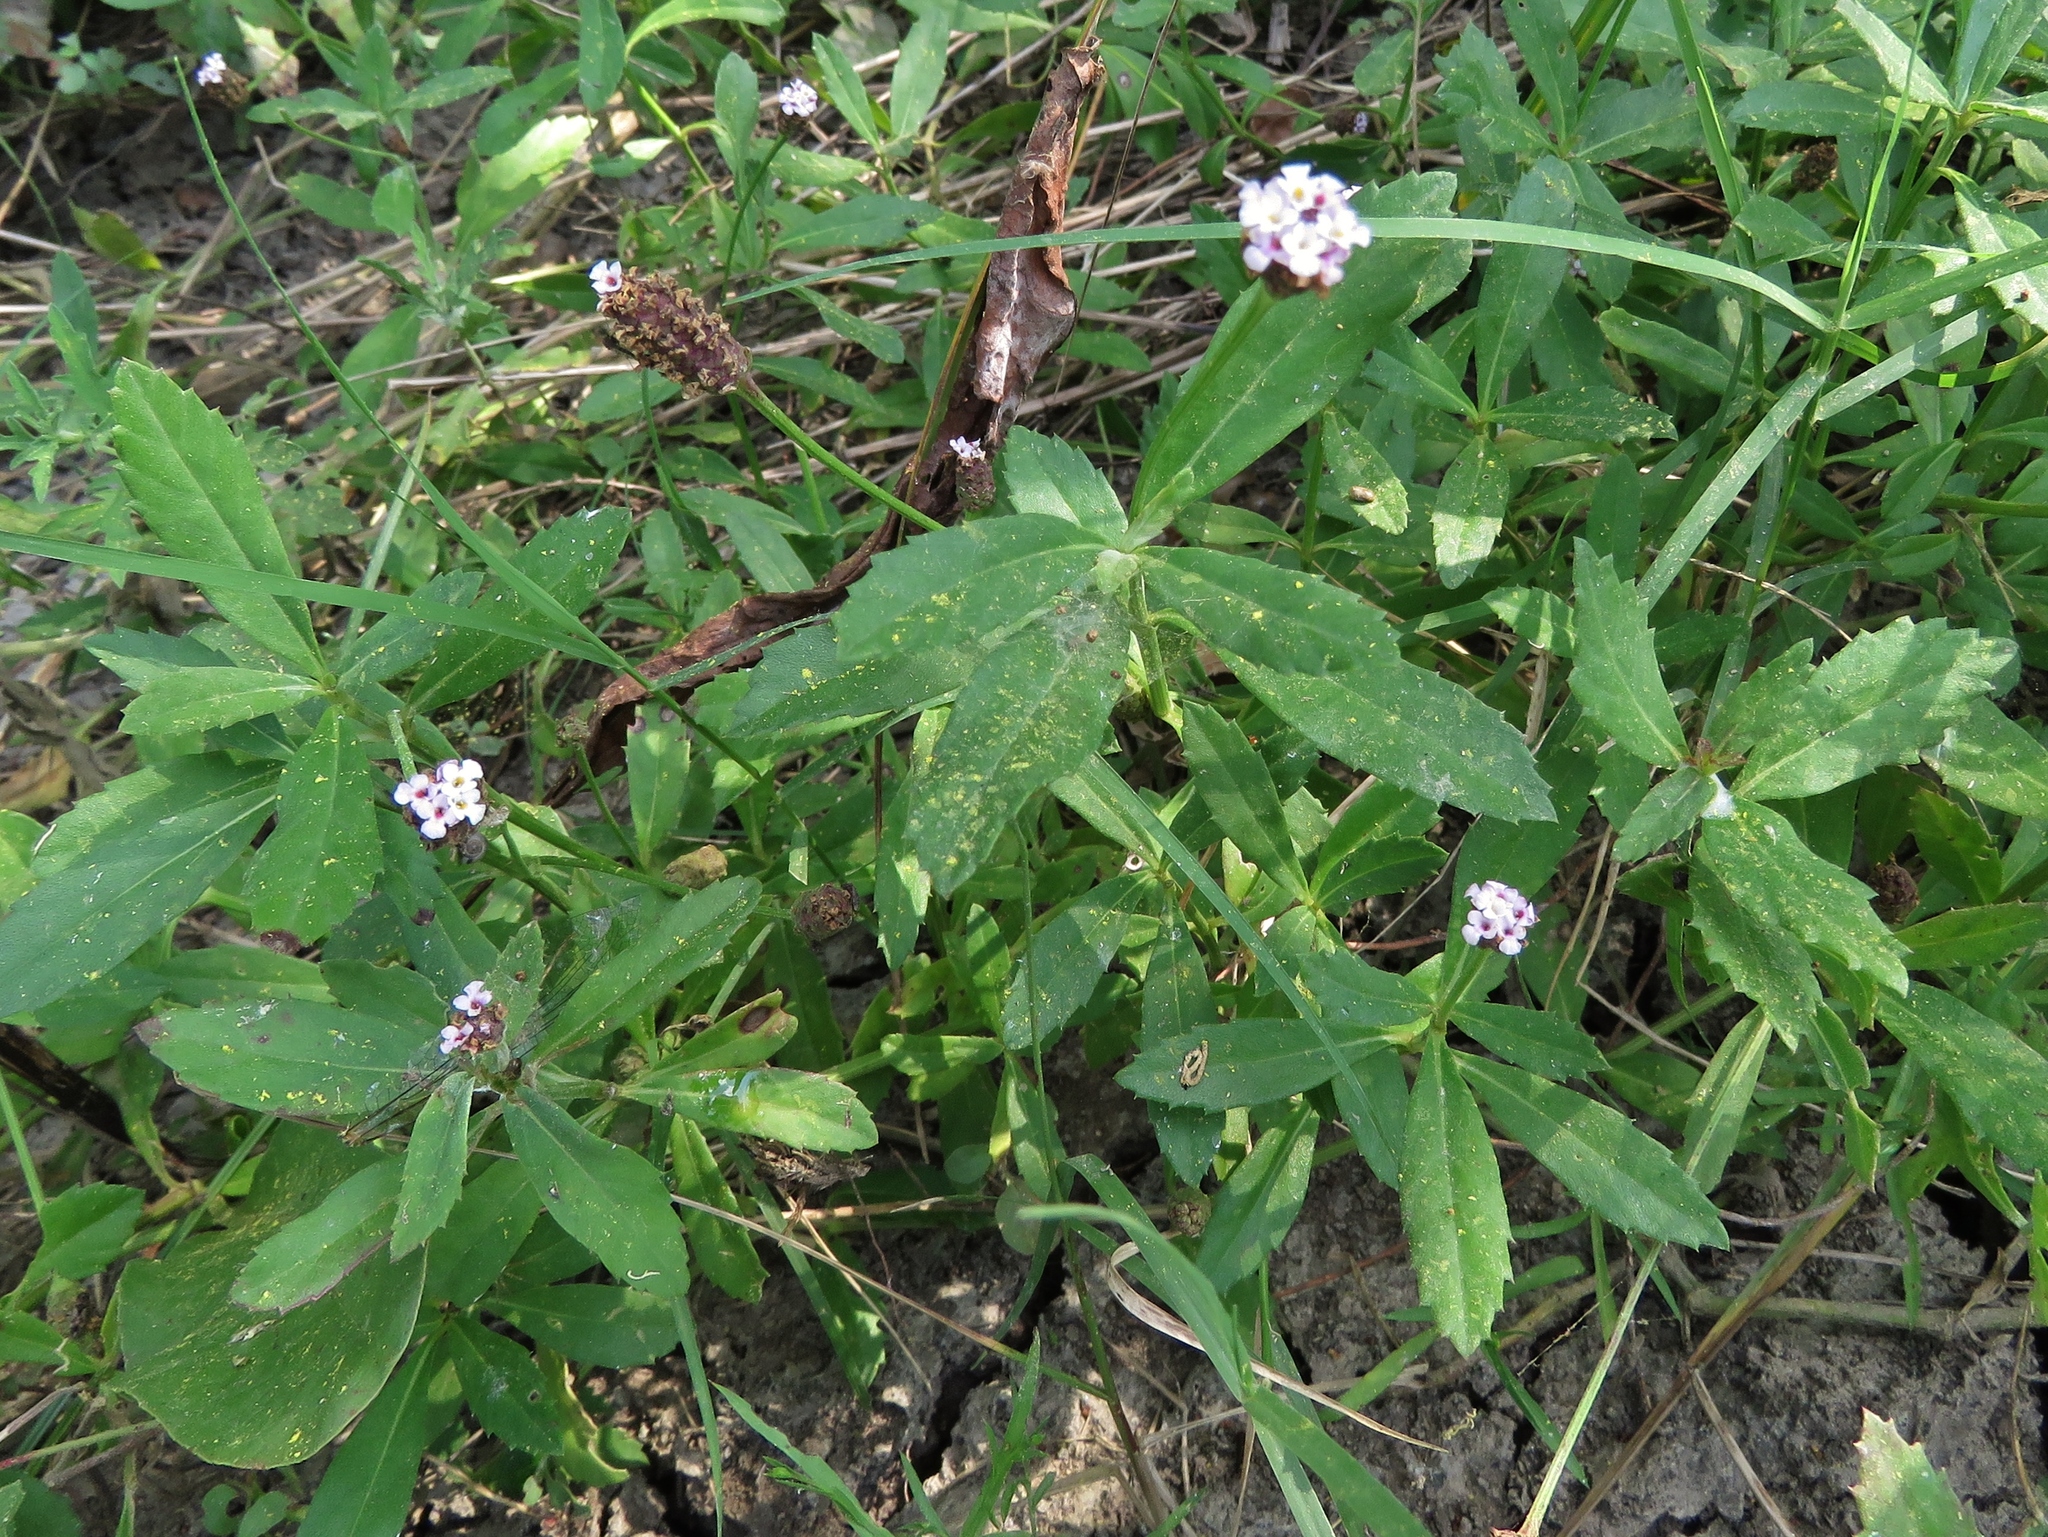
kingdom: Plantae
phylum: Tracheophyta
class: Magnoliopsida
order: Lamiales
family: Verbenaceae
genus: Phyla
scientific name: Phyla nodiflora
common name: Frogfruit
